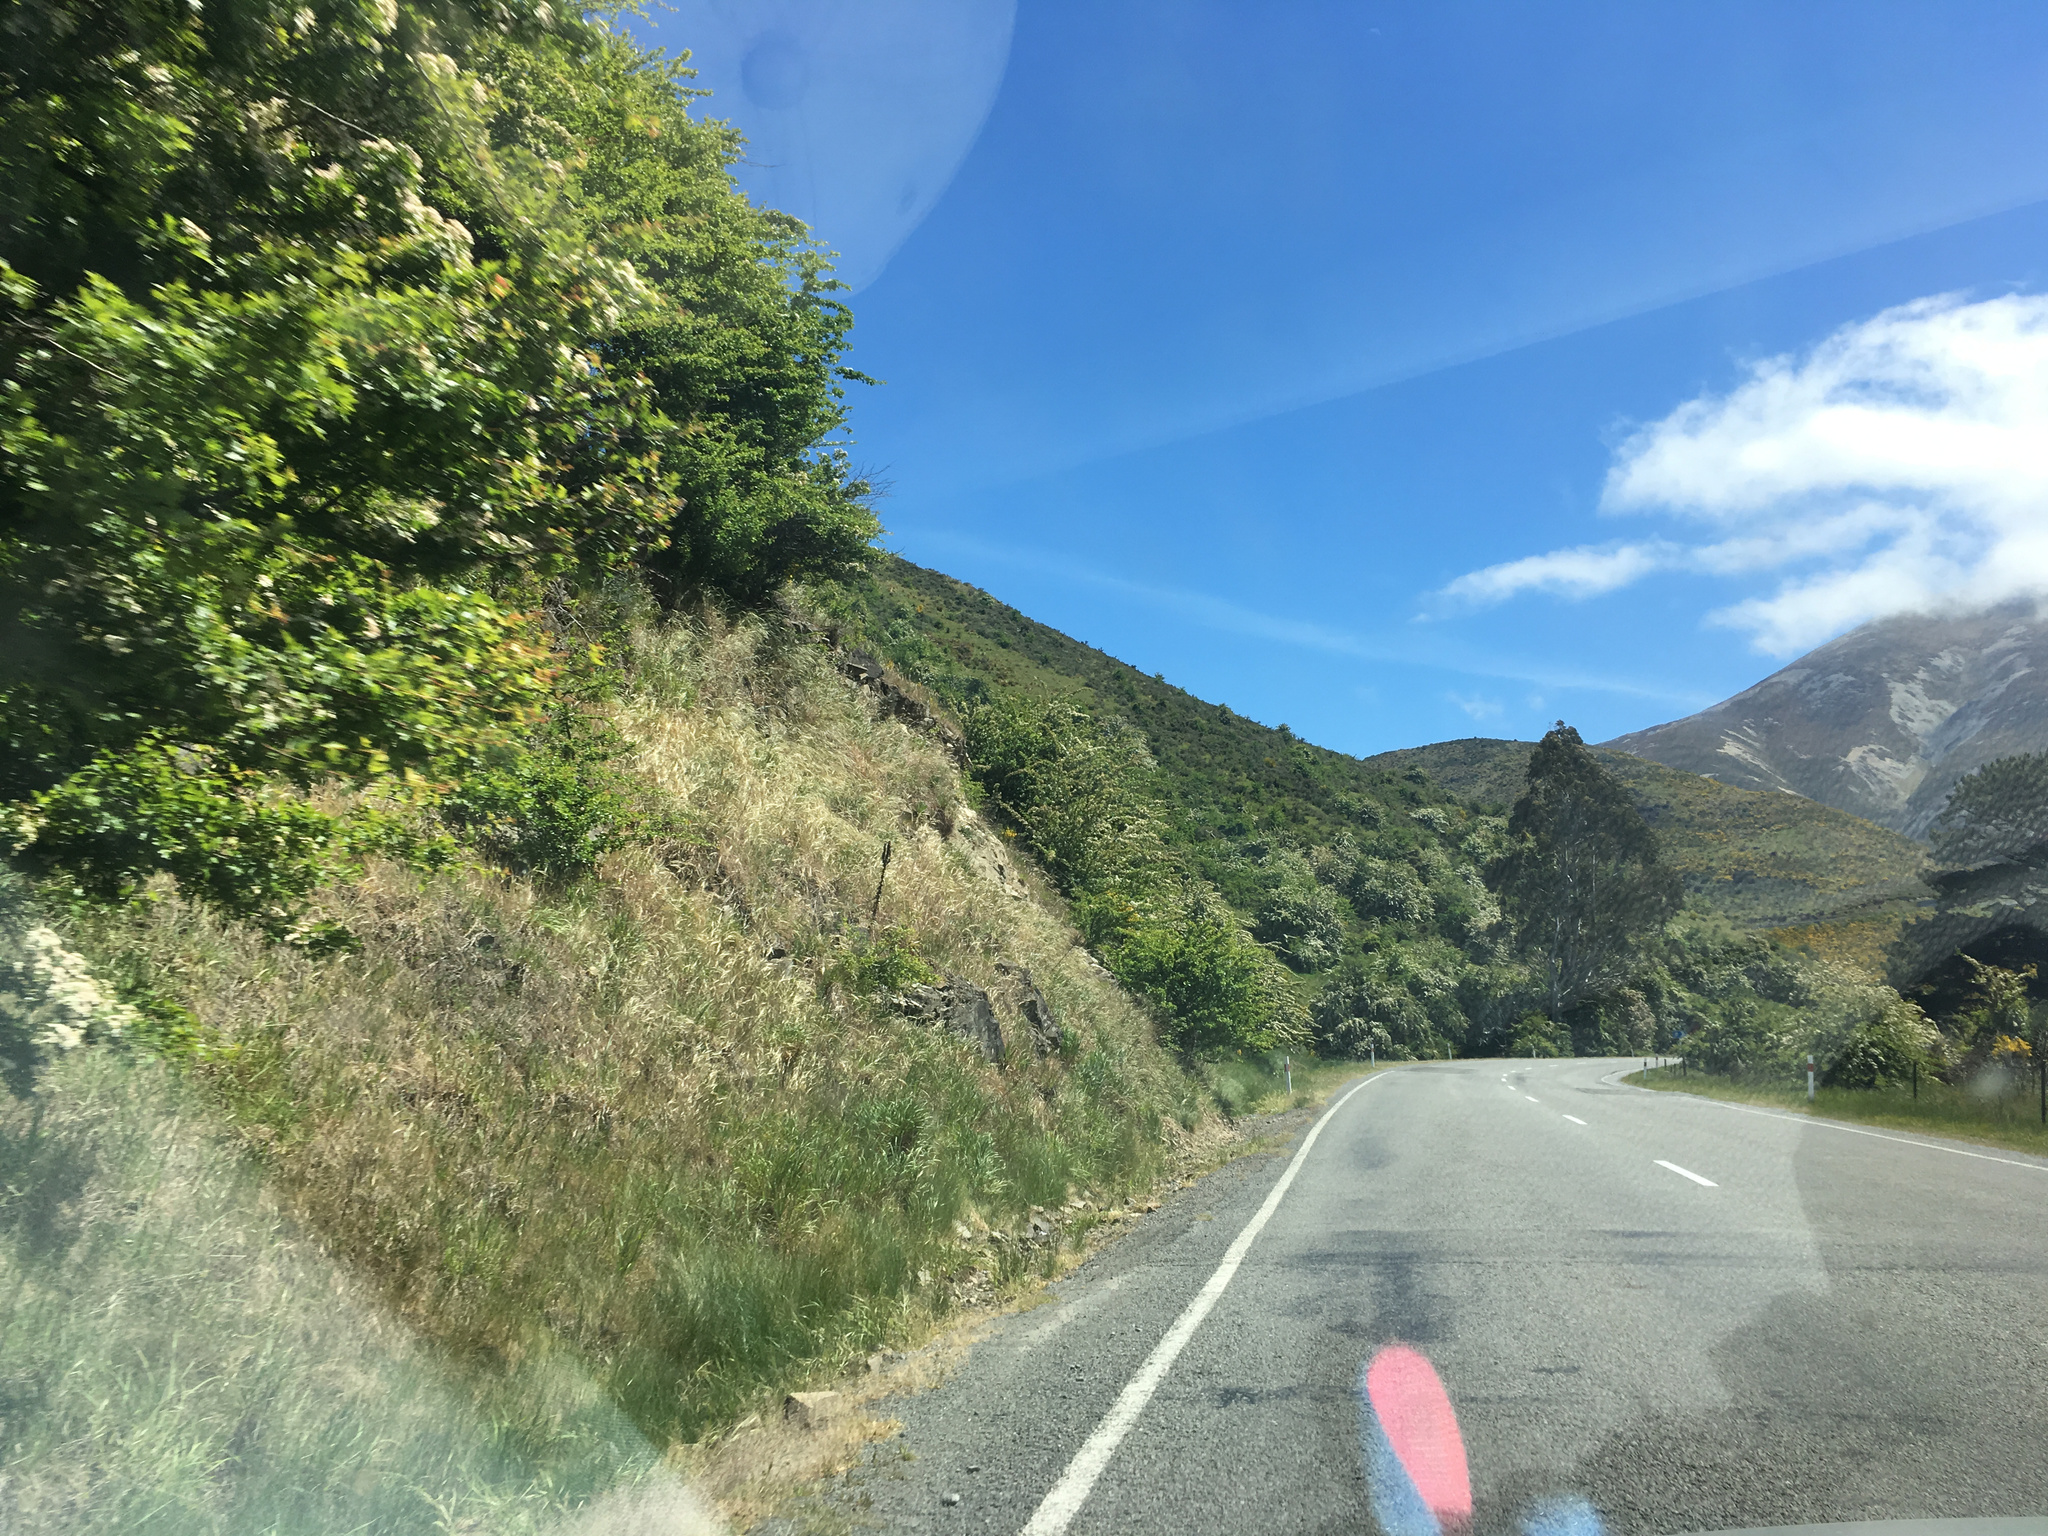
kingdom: Plantae
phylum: Tracheophyta
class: Magnoliopsida
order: Rosales
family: Rosaceae
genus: Crataegus
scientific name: Crataegus monogyna
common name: Hawthorn
